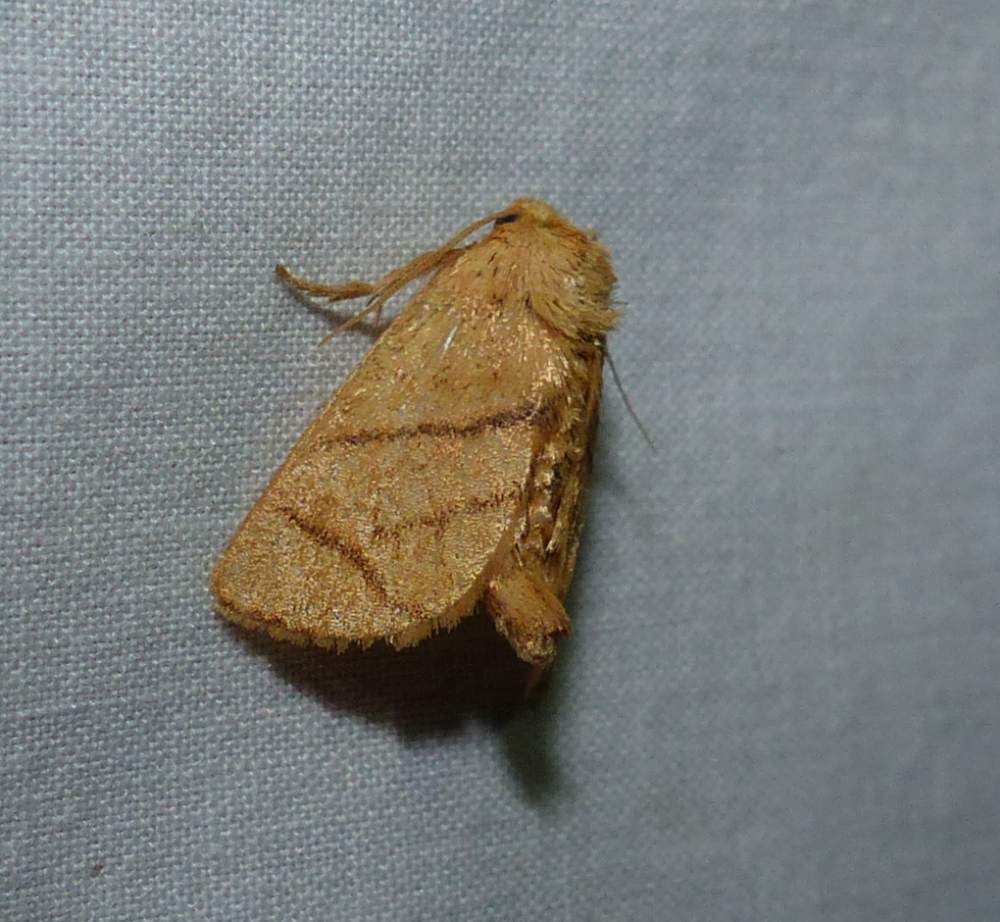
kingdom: Animalia
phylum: Arthropoda
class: Insecta
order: Lepidoptera
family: Limacodidae
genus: Apoda
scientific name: Apoda y-inversa
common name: Yellow-collared slug moth
